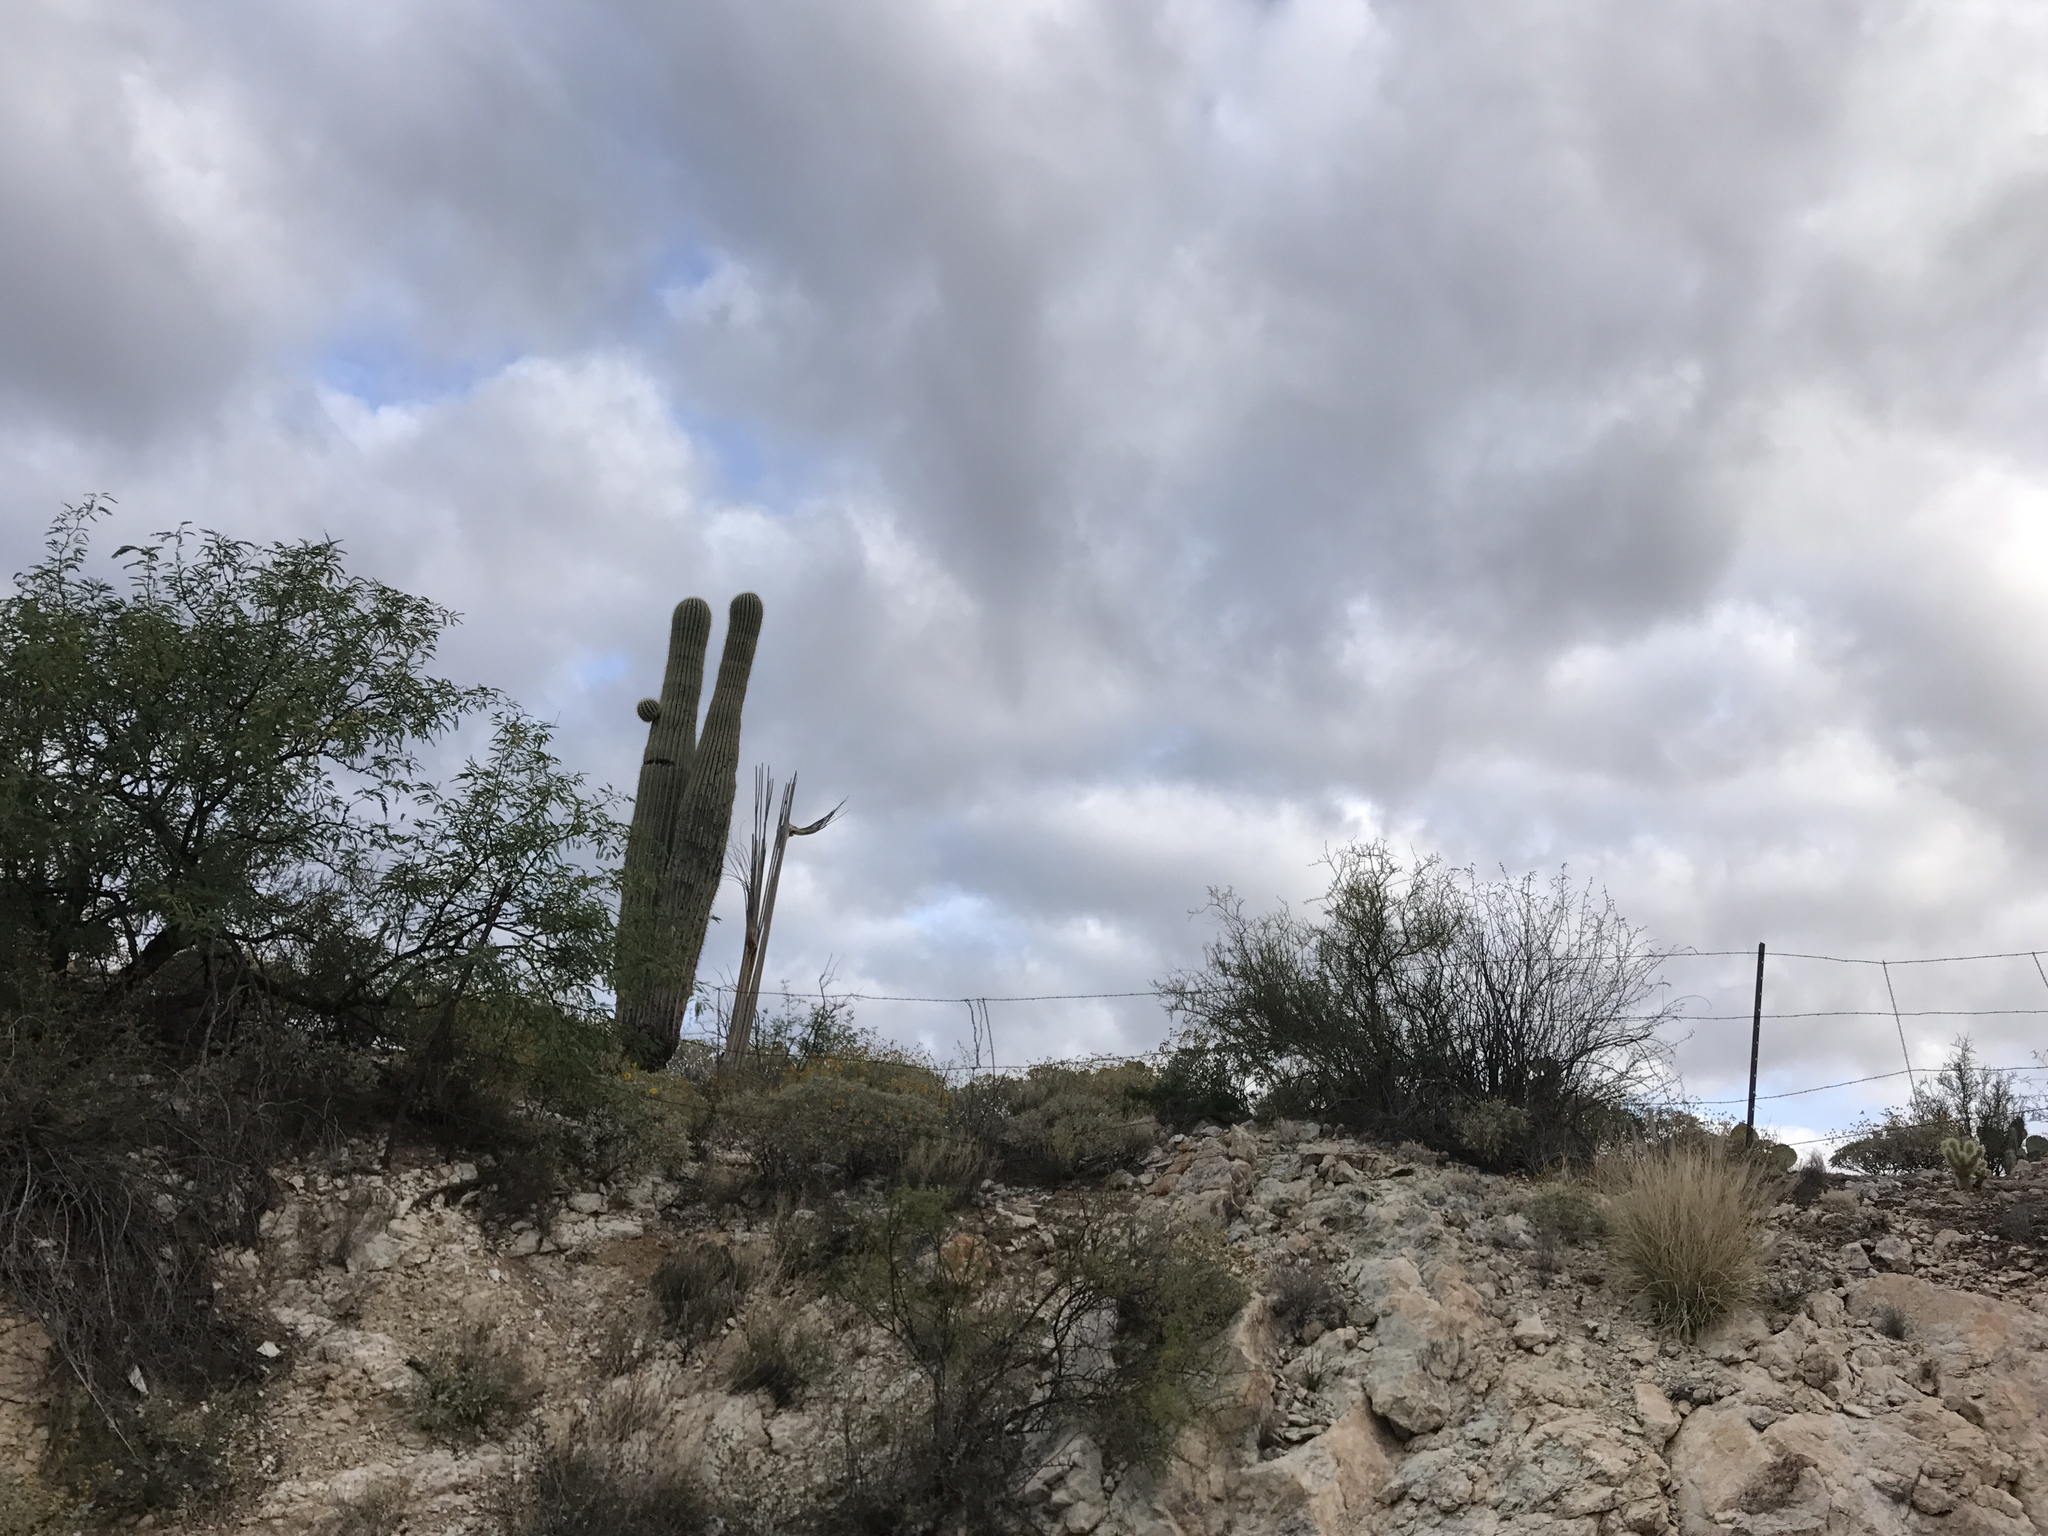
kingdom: Plantae
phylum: Tracheophyta
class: Magnoliopsida
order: Caryophyllales
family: Cactaceae
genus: Carnegiea
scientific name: Carnegiea gigantea
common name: Saguaro
